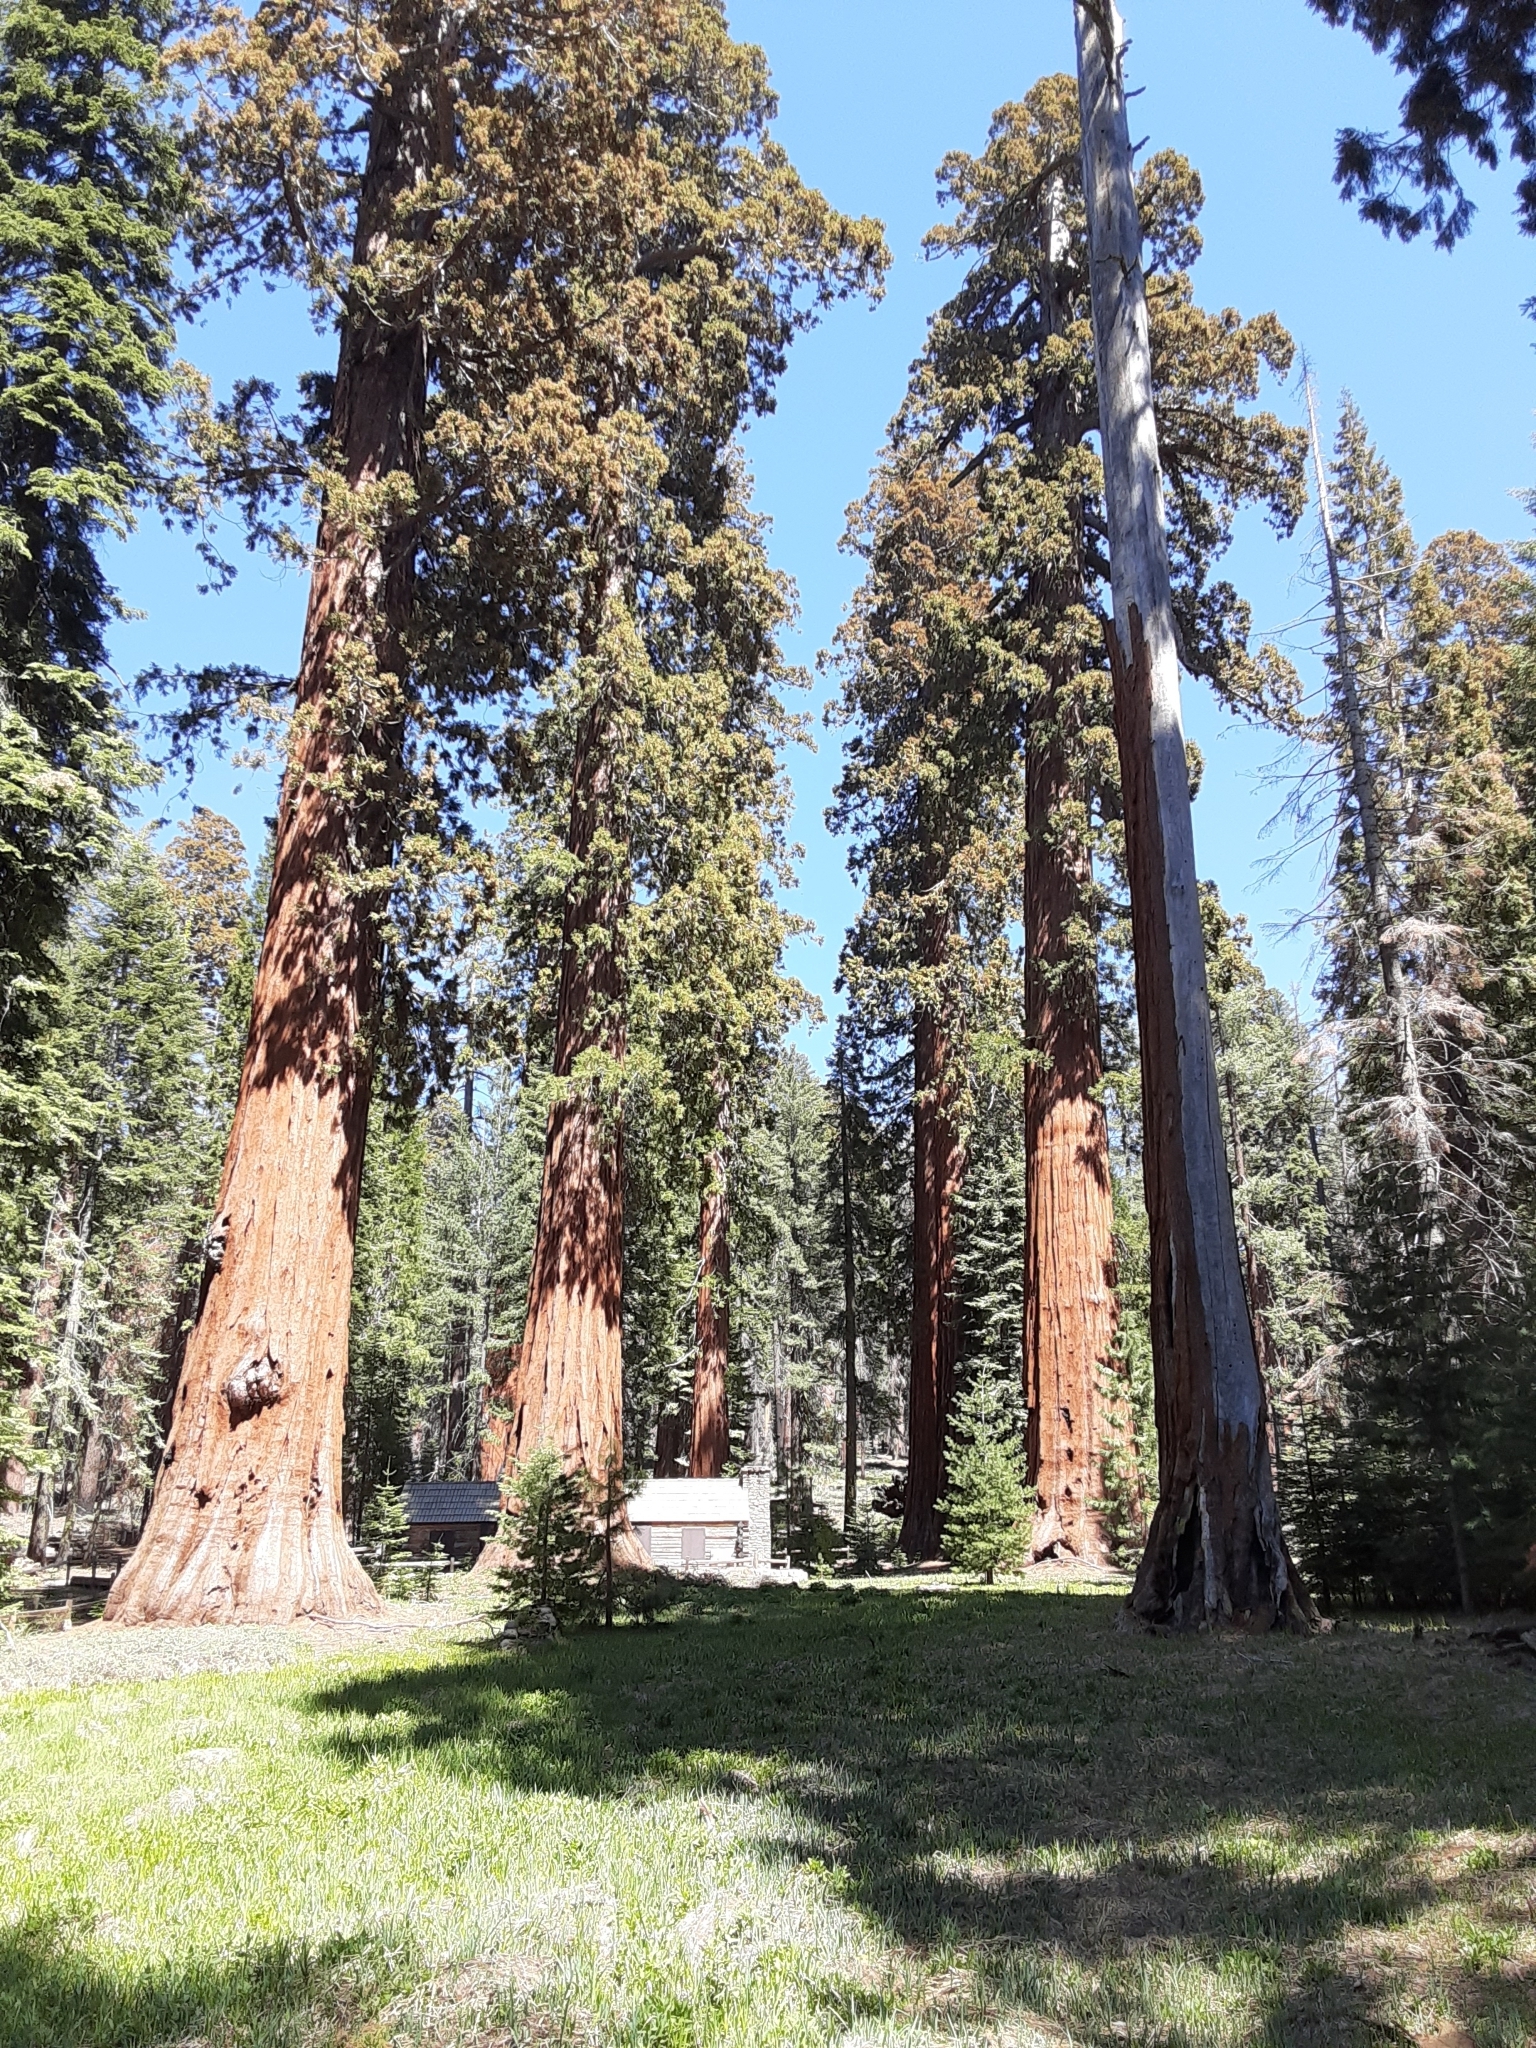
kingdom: Plantae
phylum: Tracheophyta
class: Pinopsida
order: Pinales
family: Cupressaceae
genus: Sequoiadendron
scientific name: Sequoiadendron giganteum
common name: Wellingtonia
